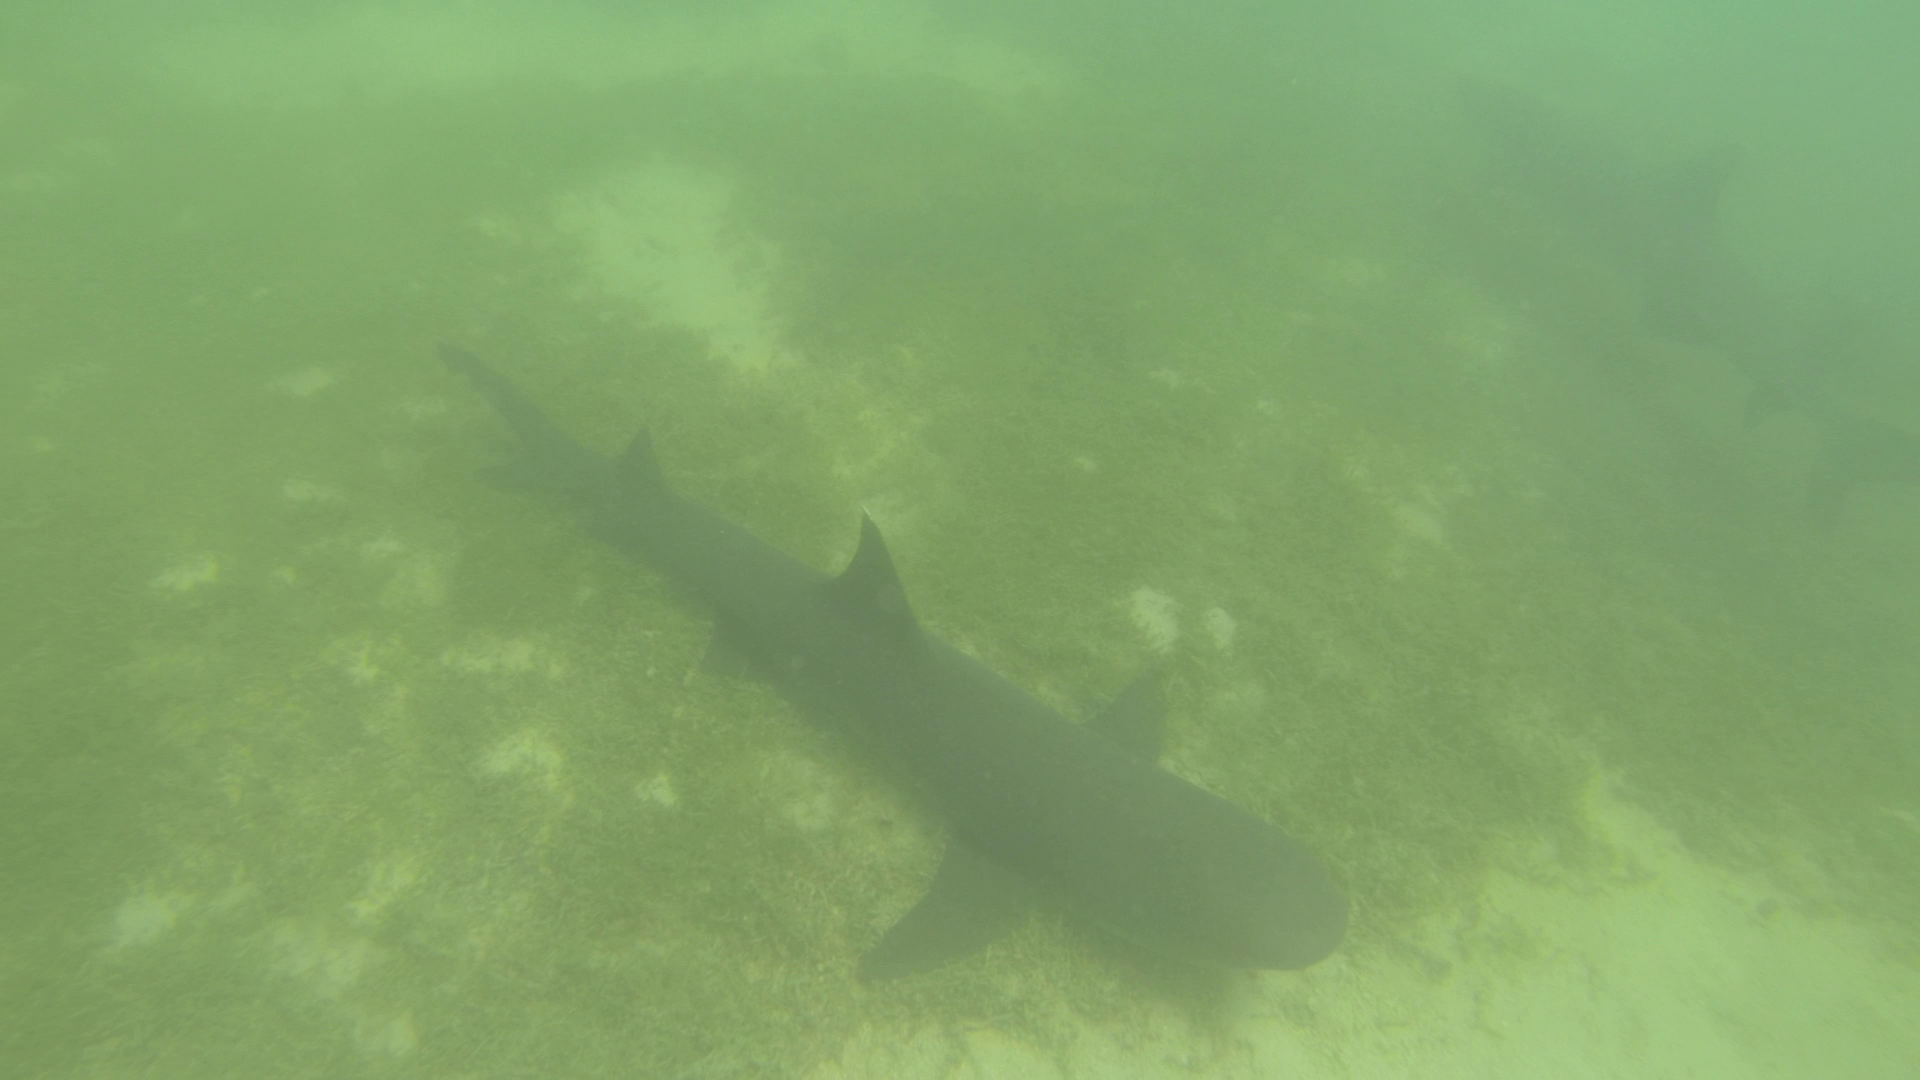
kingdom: Animalia
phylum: Chordata
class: Elasmobranchii
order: Carcharhiniformes
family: Carcharhinidae
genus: Triaenodon
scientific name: Triaenodon obesus
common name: Whitetip reef shark
